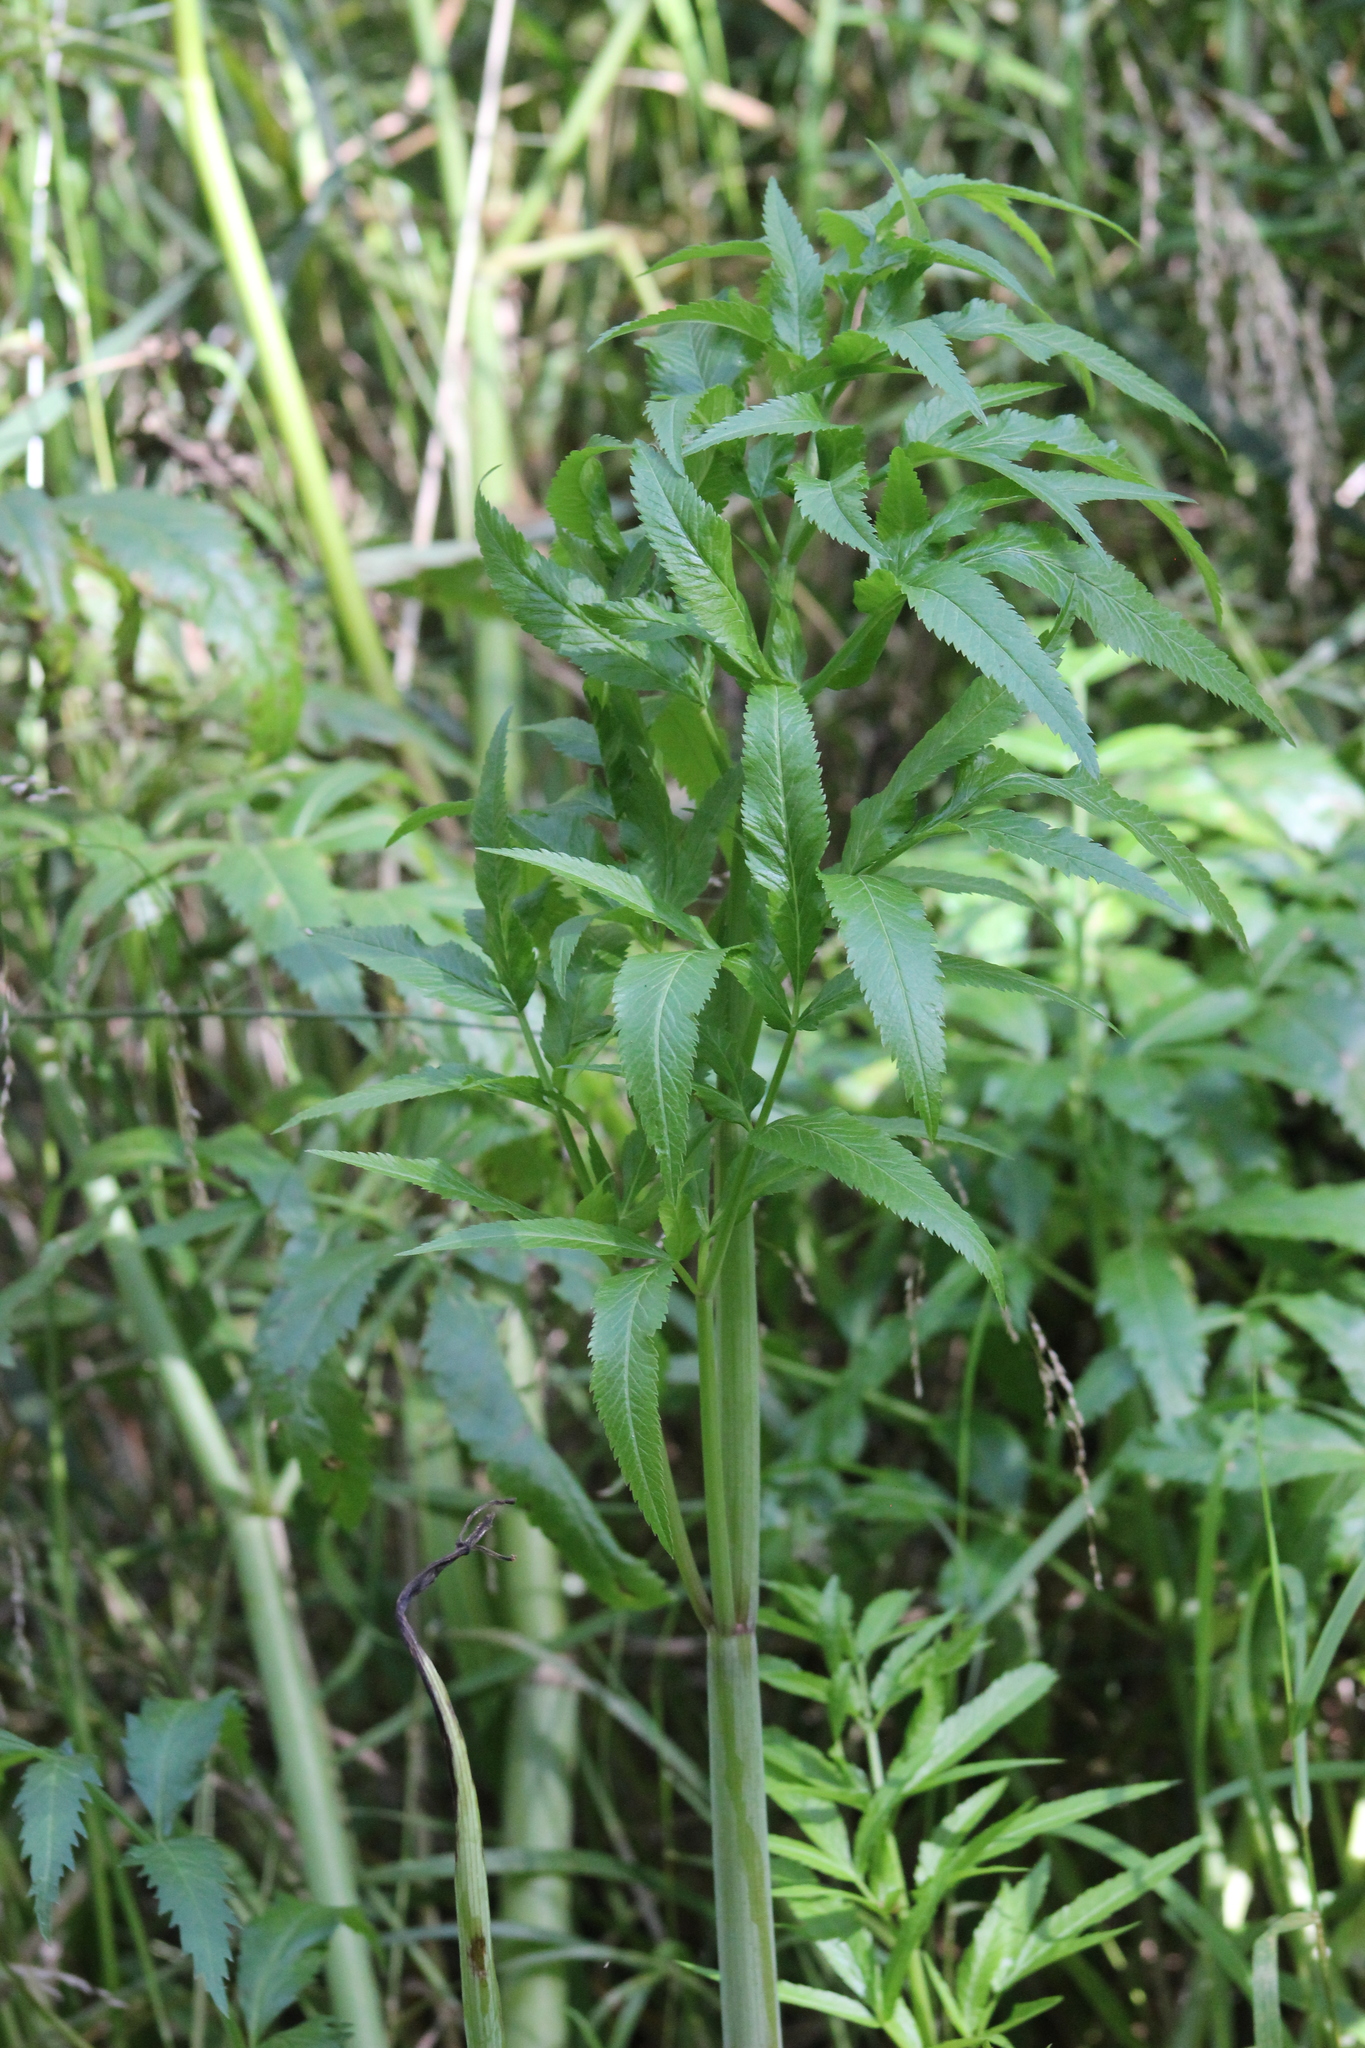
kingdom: Plantae
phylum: Tracheophyta
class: Magnoliopsida
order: Apiales
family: Apiaceae
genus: Cicuta
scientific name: Cicuta virosa
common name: Cowbane
